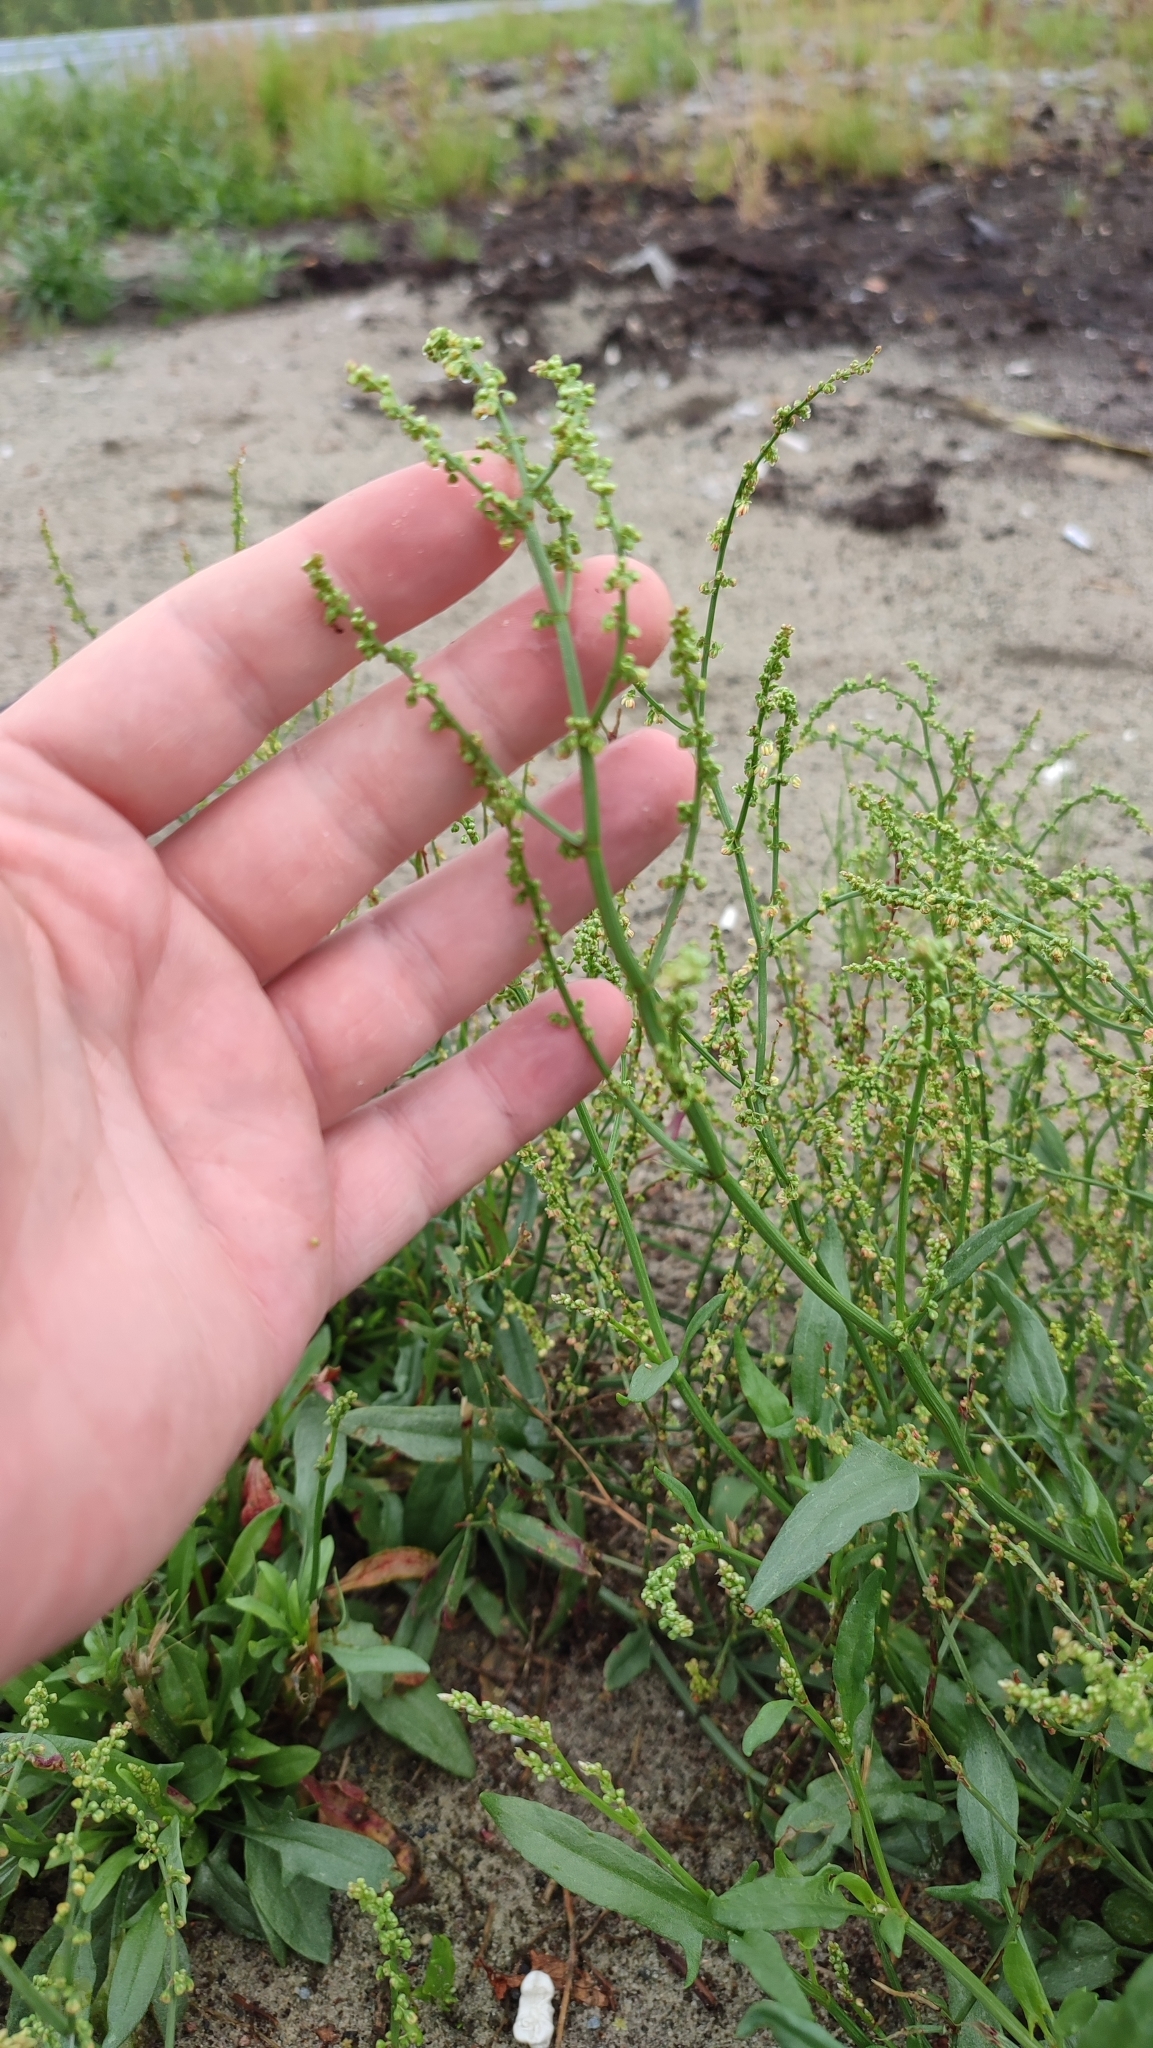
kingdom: Plantae
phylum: Tracheophyta
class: Magnoliopsida
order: Caryophyllales
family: Polygonaceae
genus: Rumex
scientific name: Rumex acetosella
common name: Common sheep sorrel
